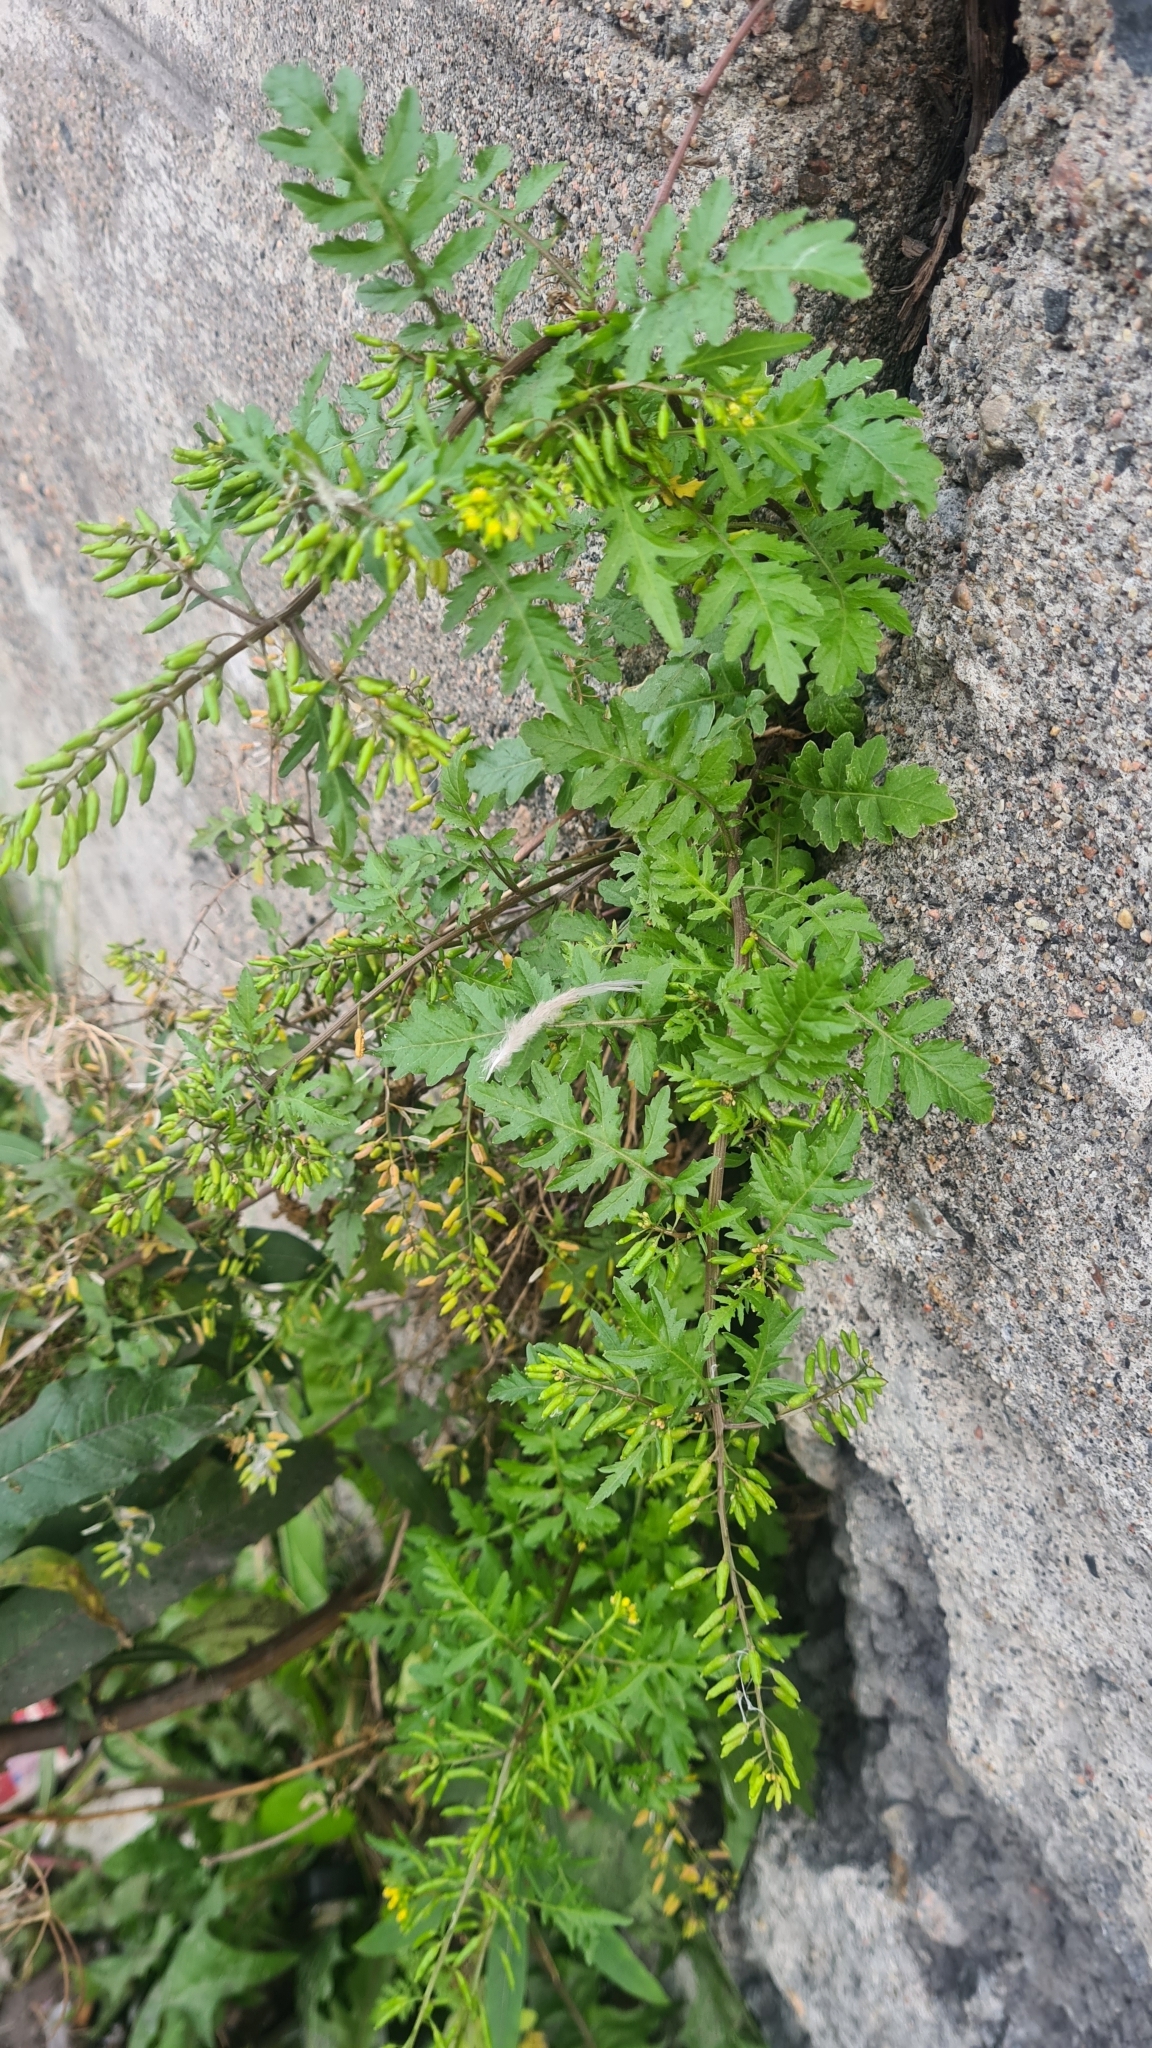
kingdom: Plantae
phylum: Tracheophyta
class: Magnoliopsida
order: Brassicales
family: Brassicaceae
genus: Rorippa
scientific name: Rorippa palustris
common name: Marsh yellow-cress
